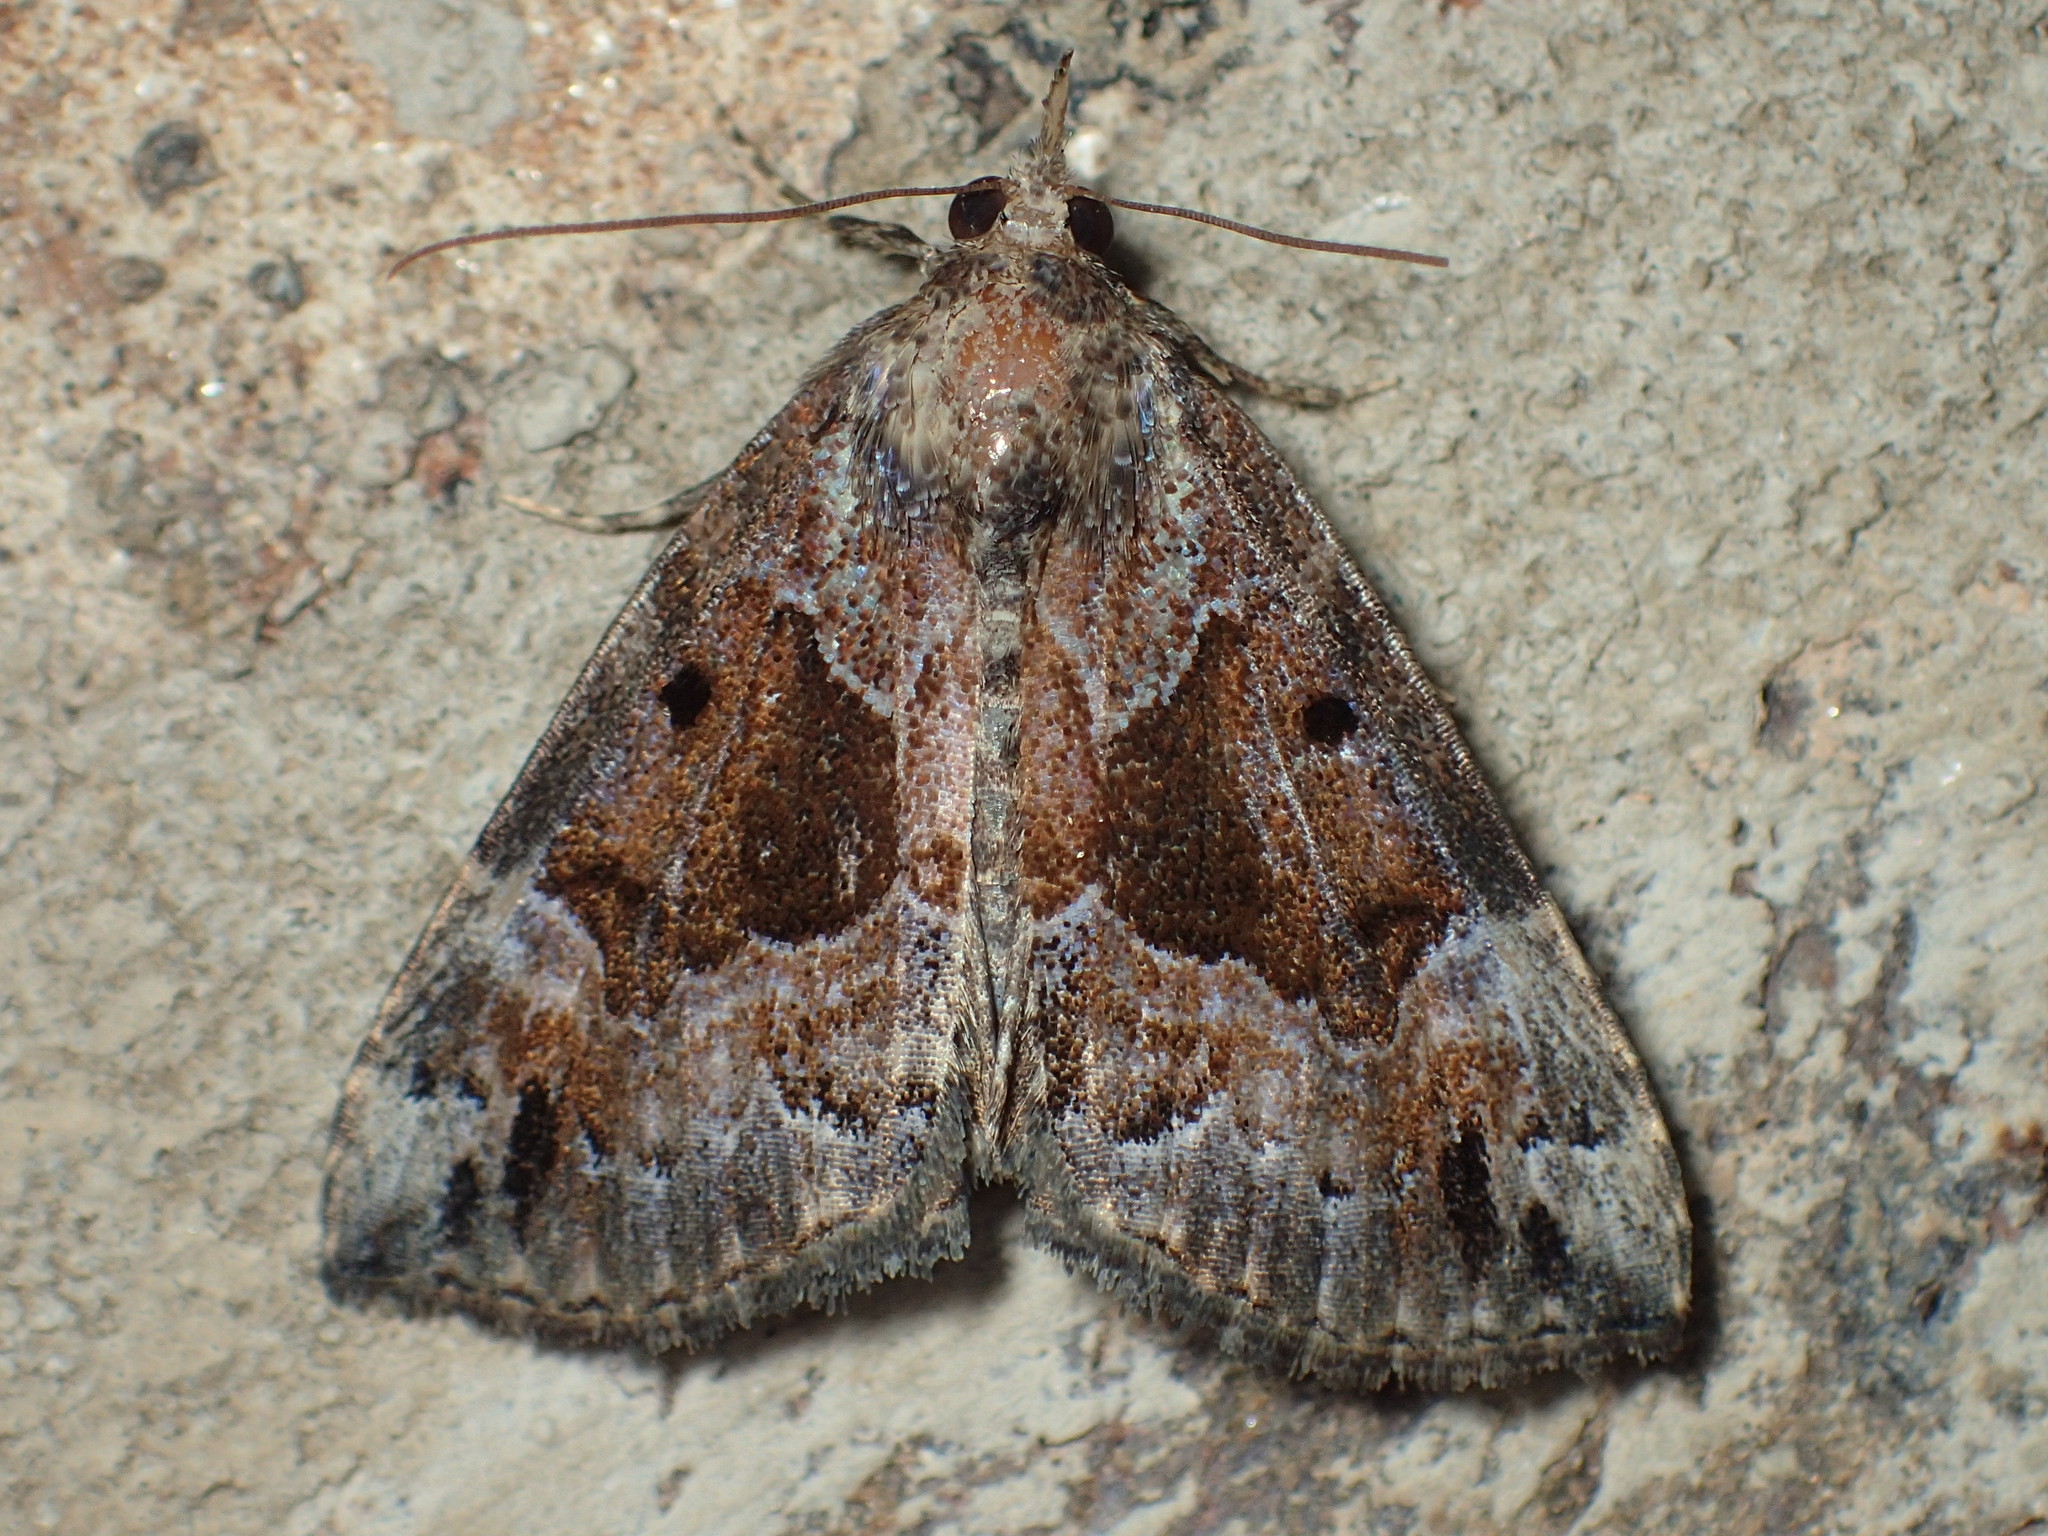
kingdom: Animalia
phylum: Arthropoda
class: Insecta
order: Lepidoptera
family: Erebidae
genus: Hypena
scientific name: Hypena palparia
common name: Mottled bomolocha moth
